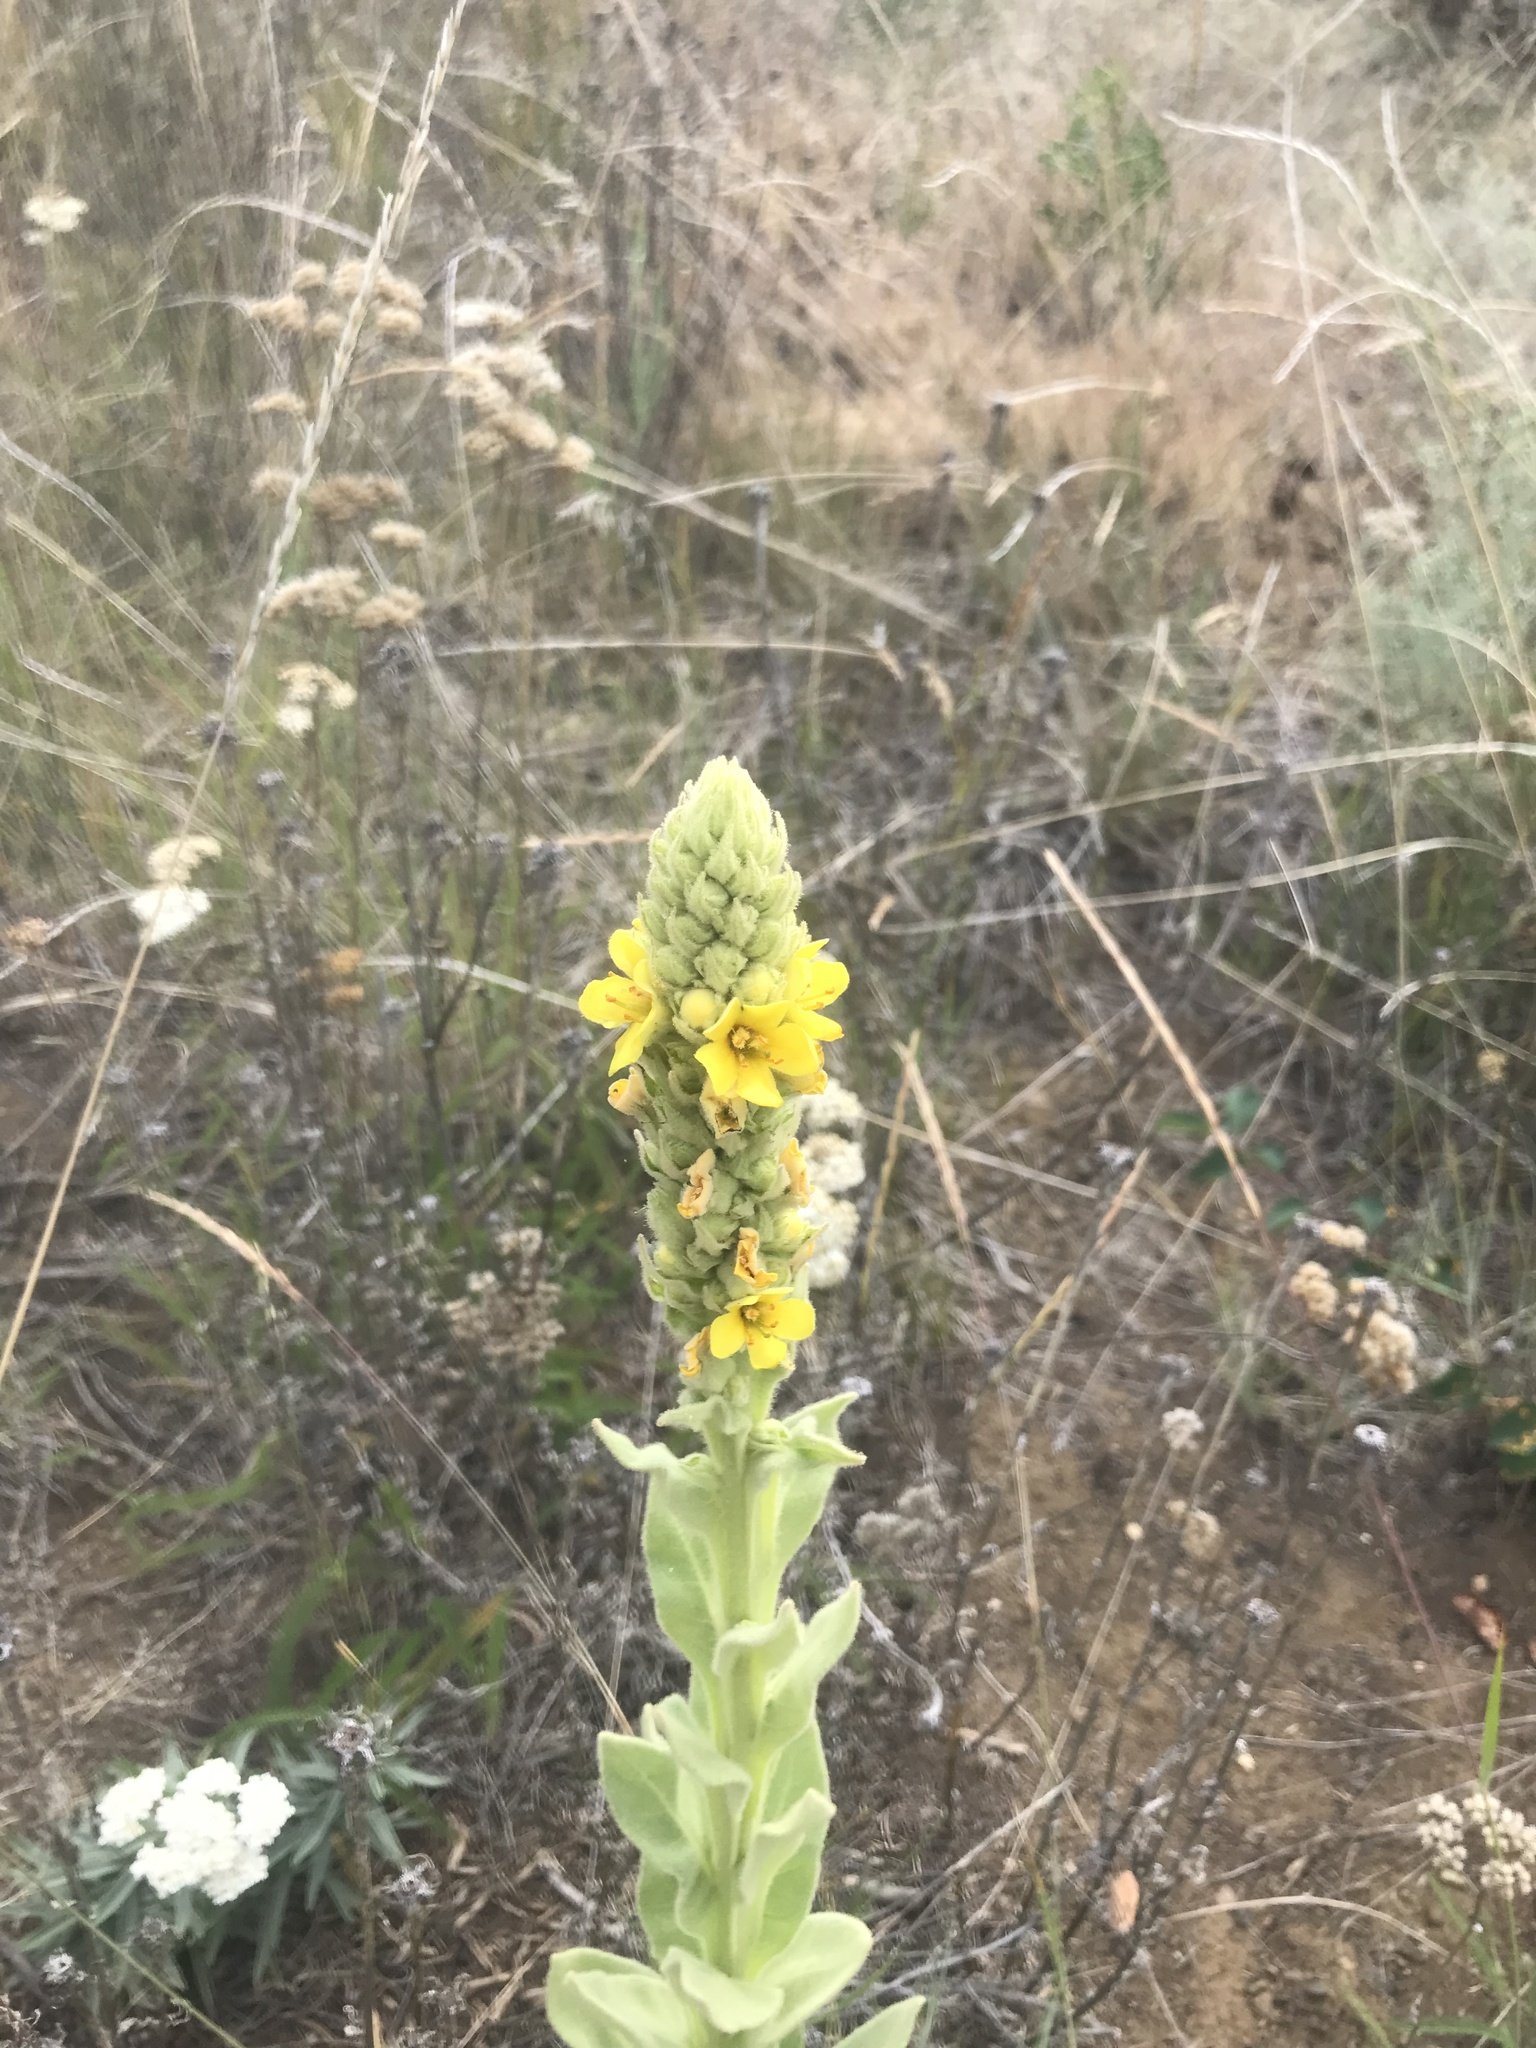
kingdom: Plantae
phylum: Tracheophyta
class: Magnoliopsida
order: Lamiales
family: Scrophulariaceae
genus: Verbascum
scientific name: Verbascum thapsus
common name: Common mullein
